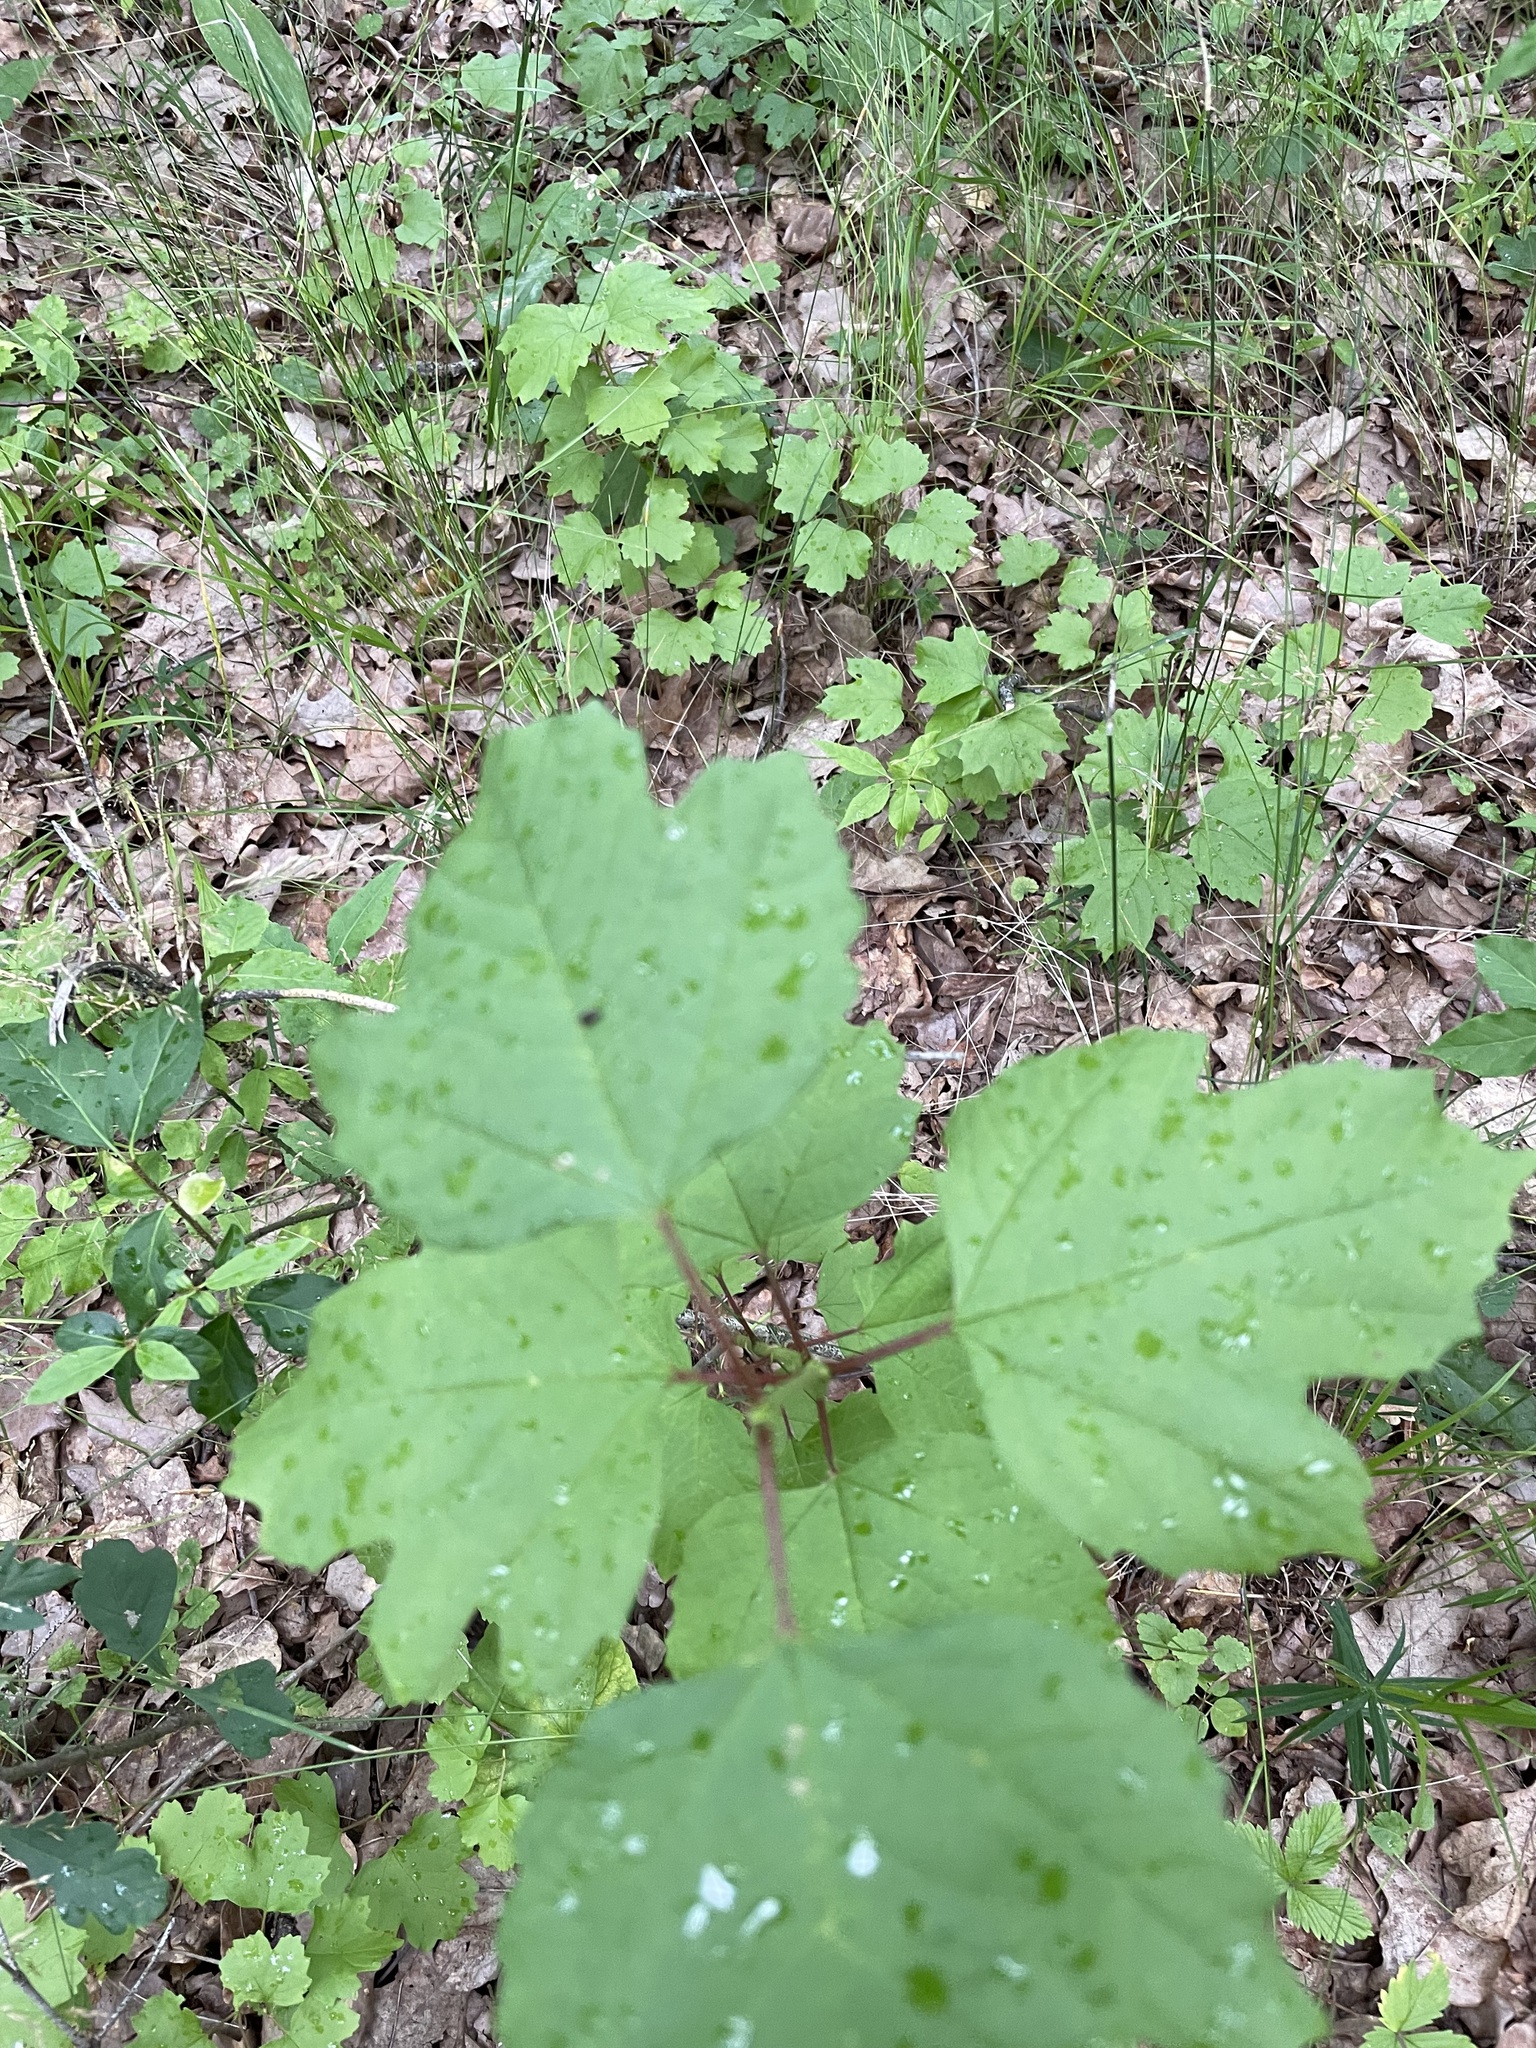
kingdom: Plantae
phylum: Tracheophyta
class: Magnoliopsida
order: Dipsacales
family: Viburnaceae
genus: Viburnum
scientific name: Viburnum opulus
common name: Guelder-rose
